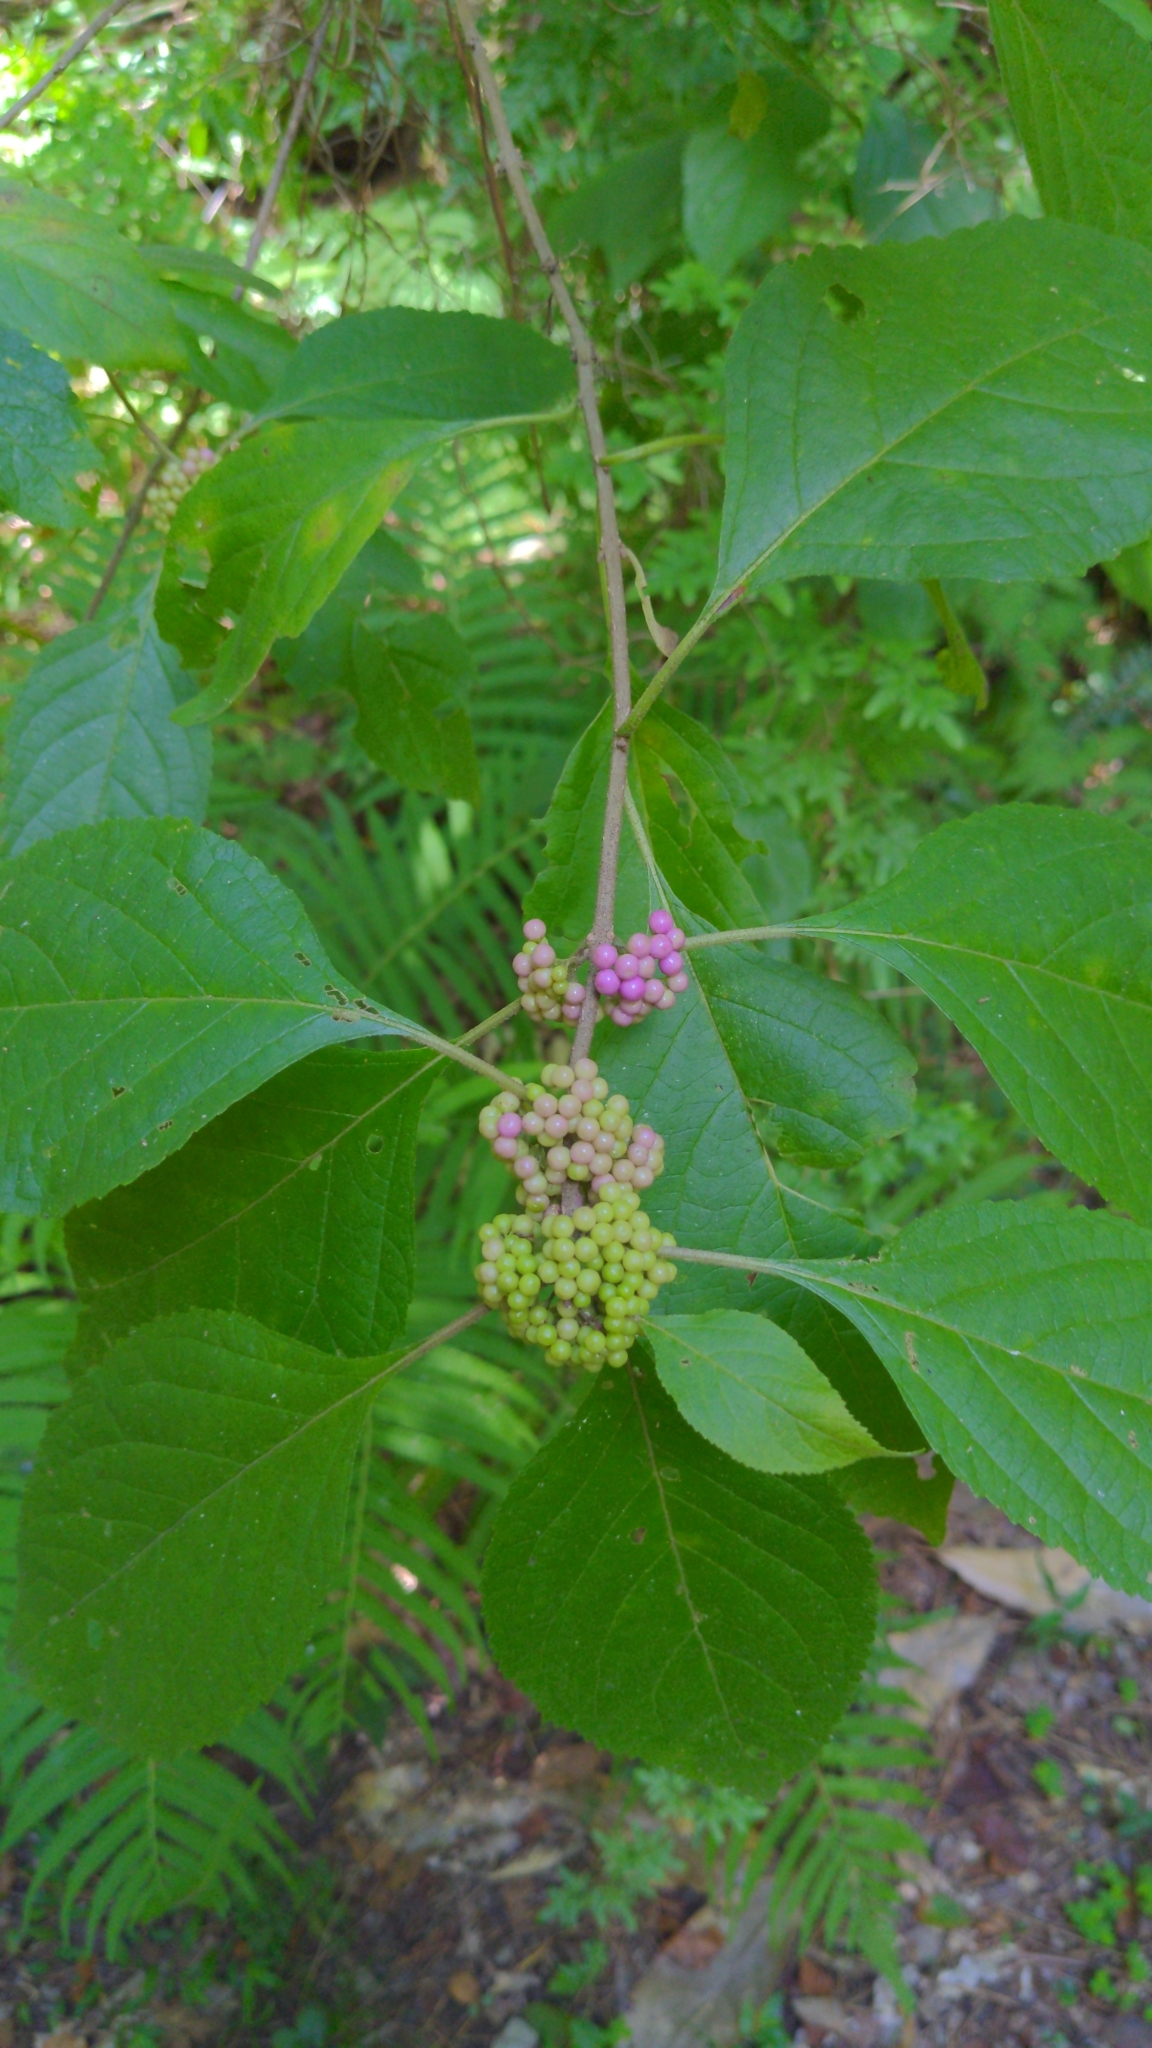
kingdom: Plantae
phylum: Tracheophyta
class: Magnoliopsida
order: Lamiales
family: Lamiaceae
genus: Callicarpa
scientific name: Callicarpa americana
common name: American beautyberry
